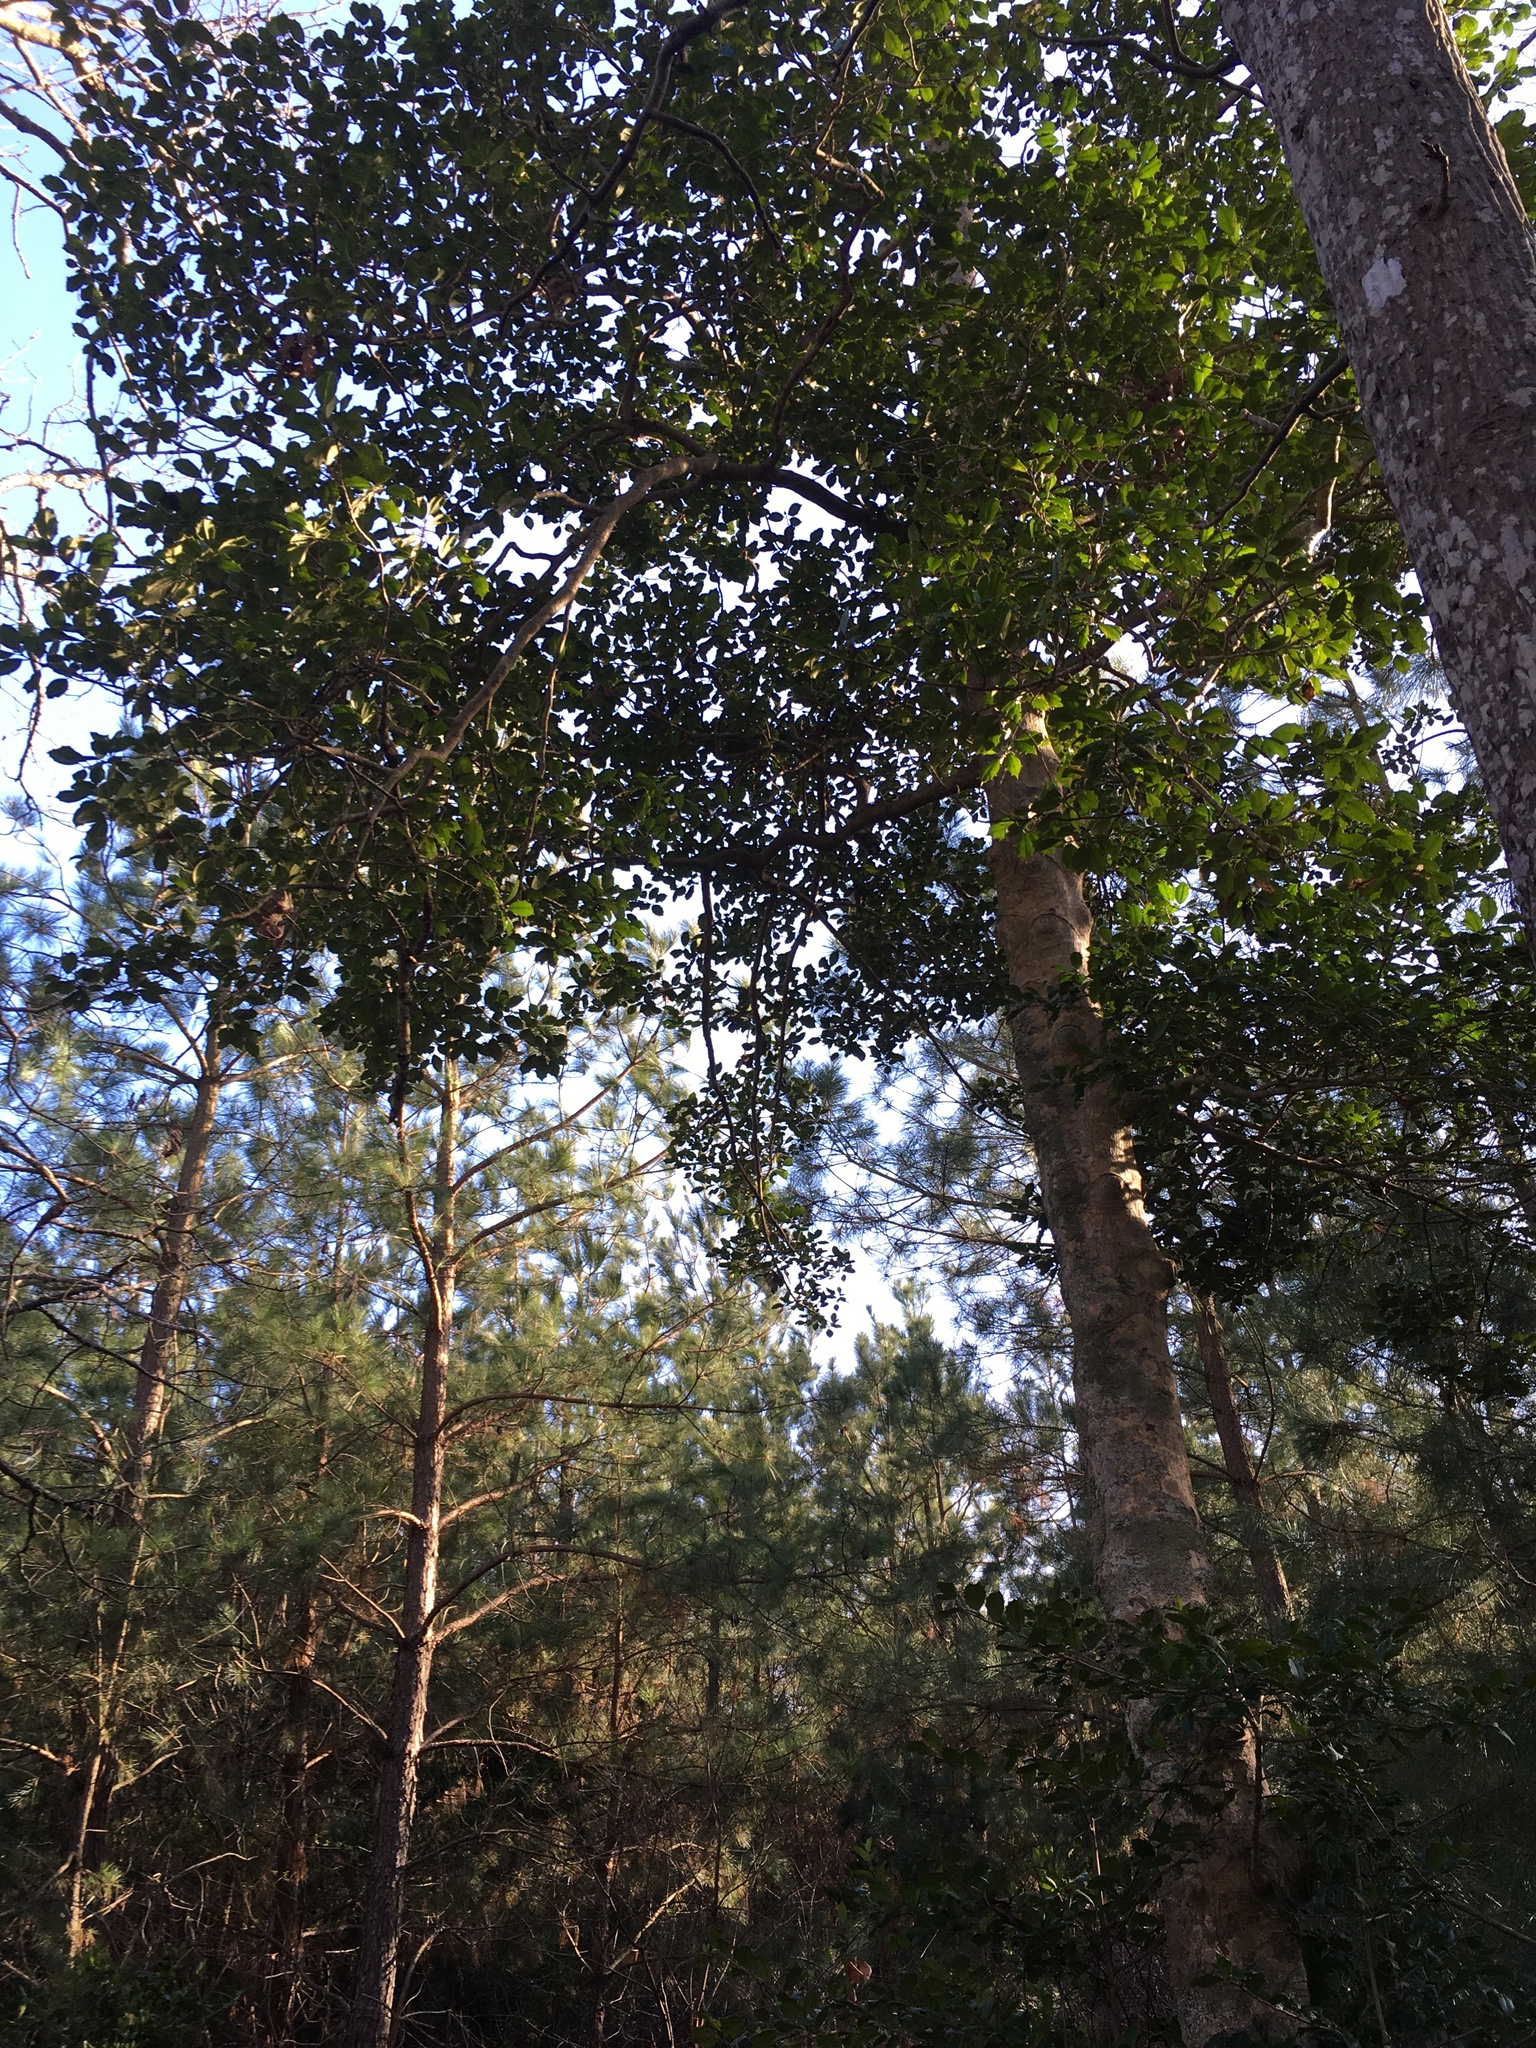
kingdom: Plantae
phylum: Tracheophyta
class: Magnoliopsida
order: Aquifoliales
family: Aquifoliaceae
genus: Ilex
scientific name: Ilex opaca
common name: American holly
